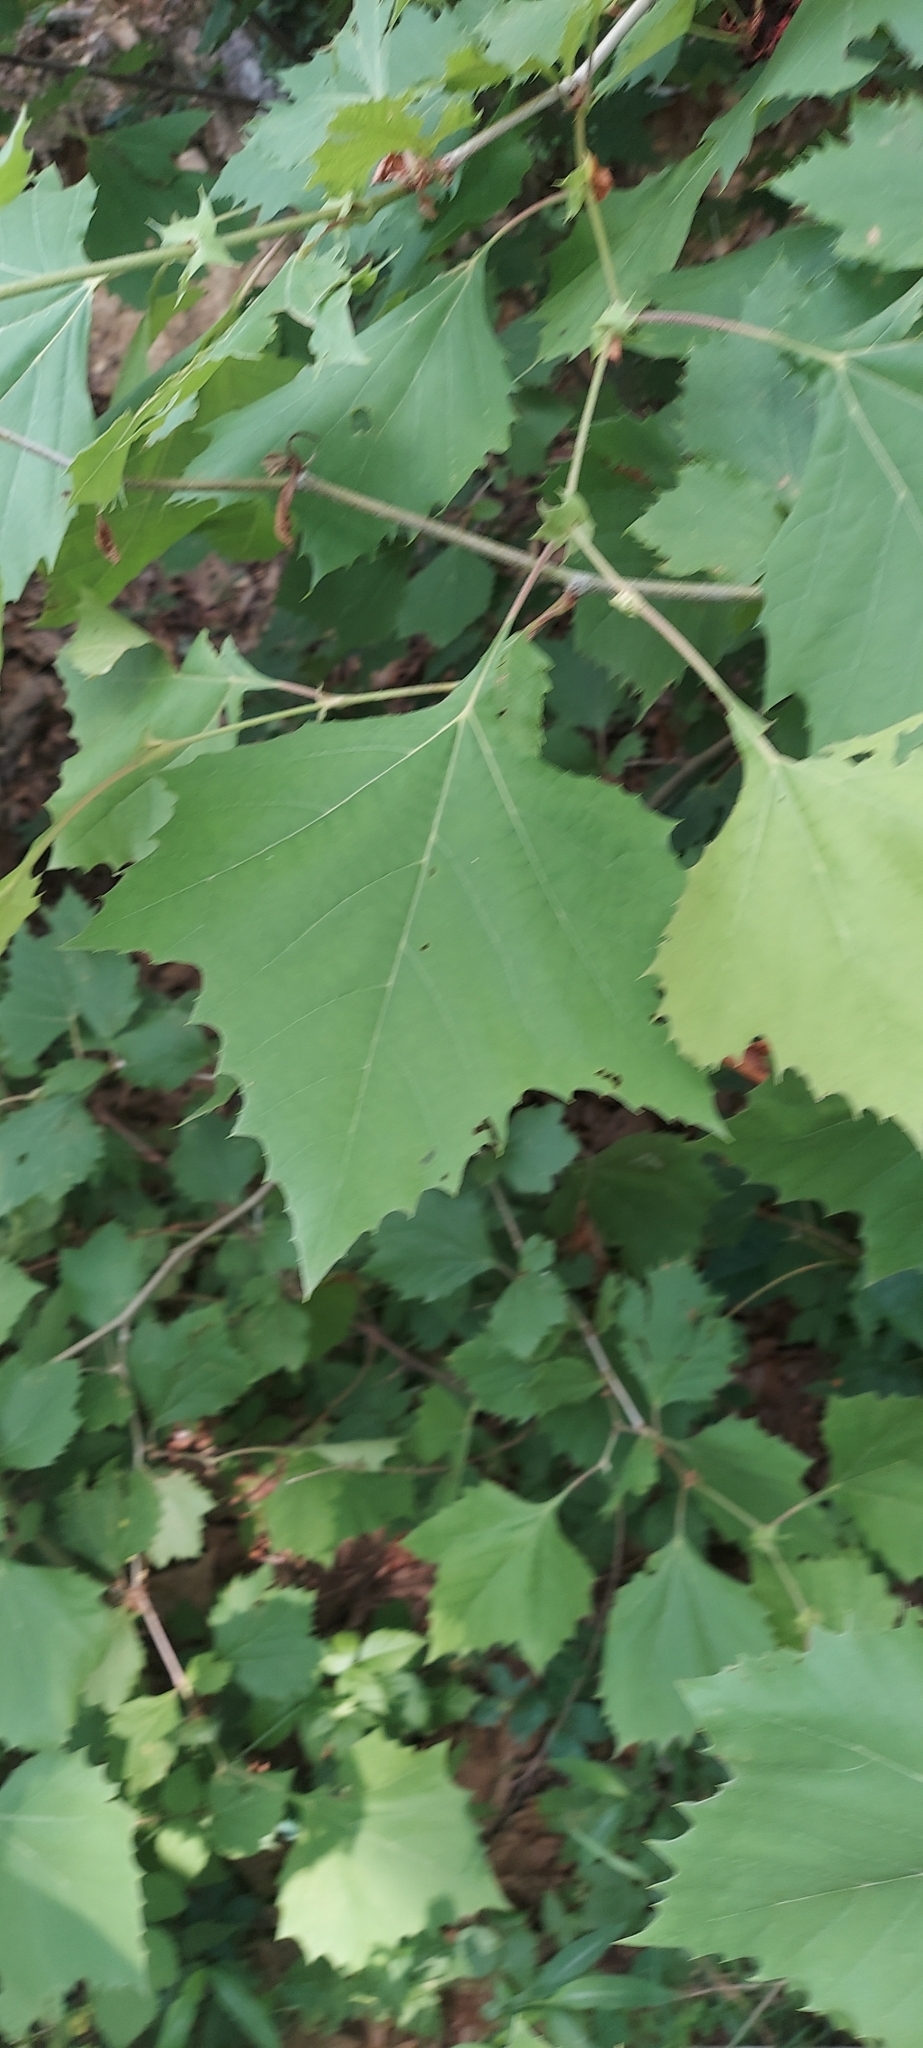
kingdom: Plantae
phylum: Tracheophyta
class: Magnoliopsida
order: Proteales
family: Platanaceae
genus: Platanus
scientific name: Platanus occidentalis
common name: American sycamore
